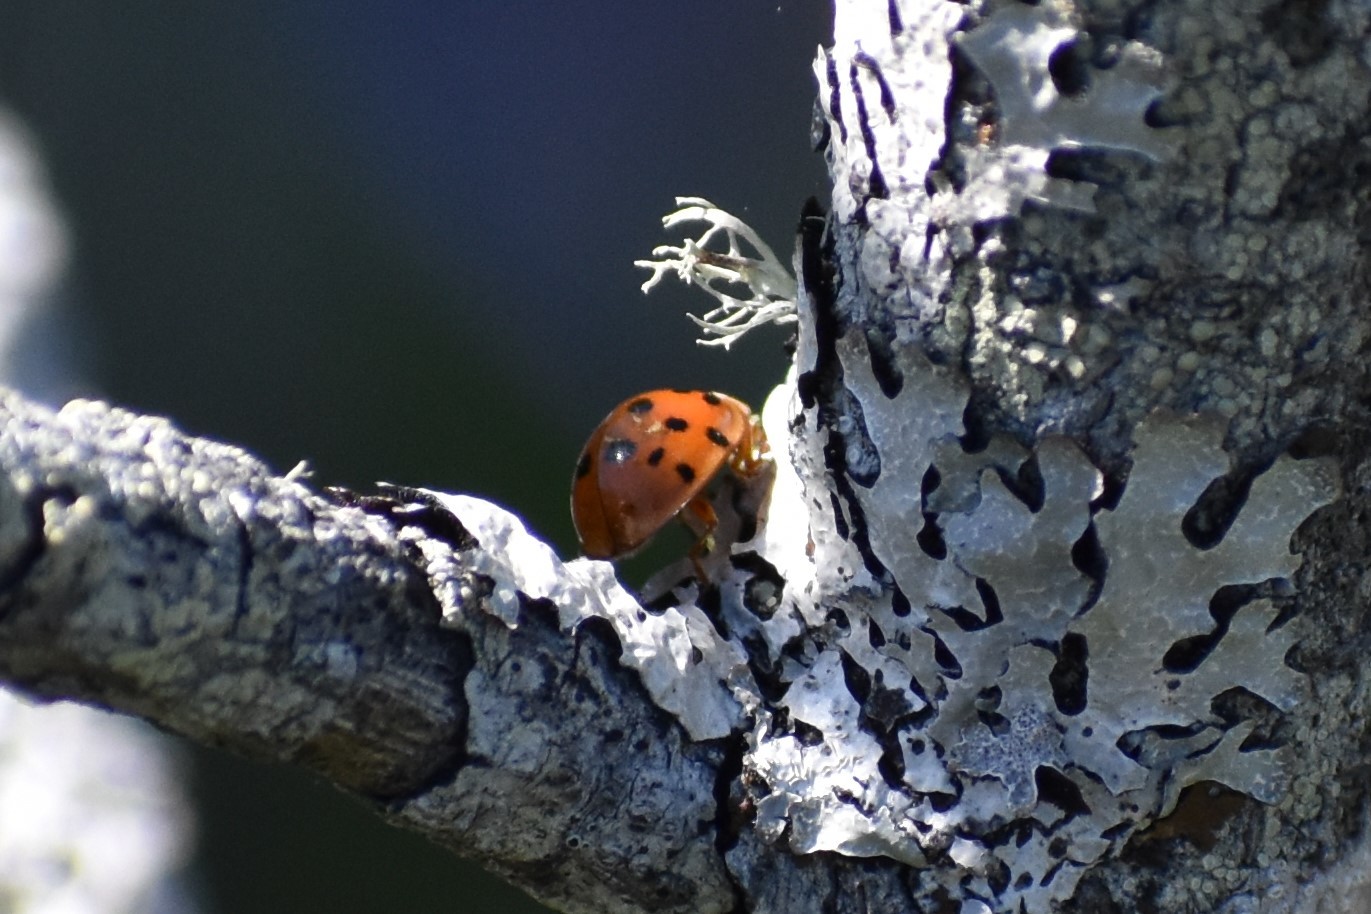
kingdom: Animalia
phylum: Arthropoda
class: Insecta
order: Coleoptera
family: Coccinellidae
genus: Harmonia
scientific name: Harmonia axyridis
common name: Harlequin ladybird
